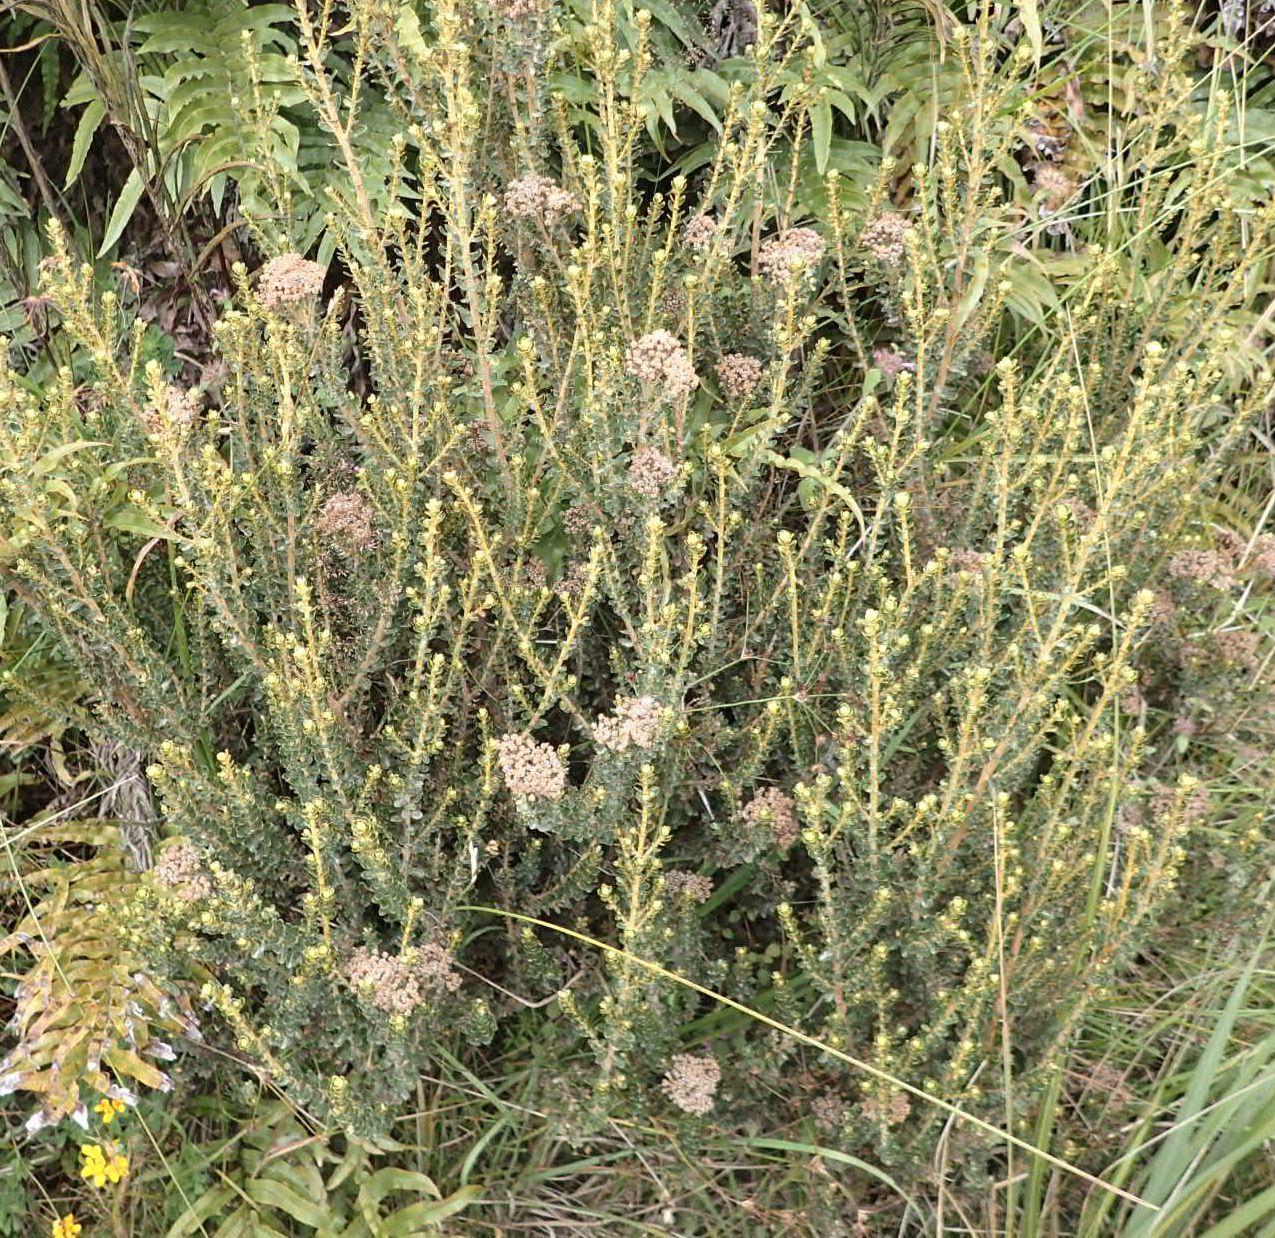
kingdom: Plantae
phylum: Tracheophyta
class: Magnoliopsida
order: Asterales
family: Asteraceae
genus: Ozothamnus
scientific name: Ozothamnus leptophyllus
